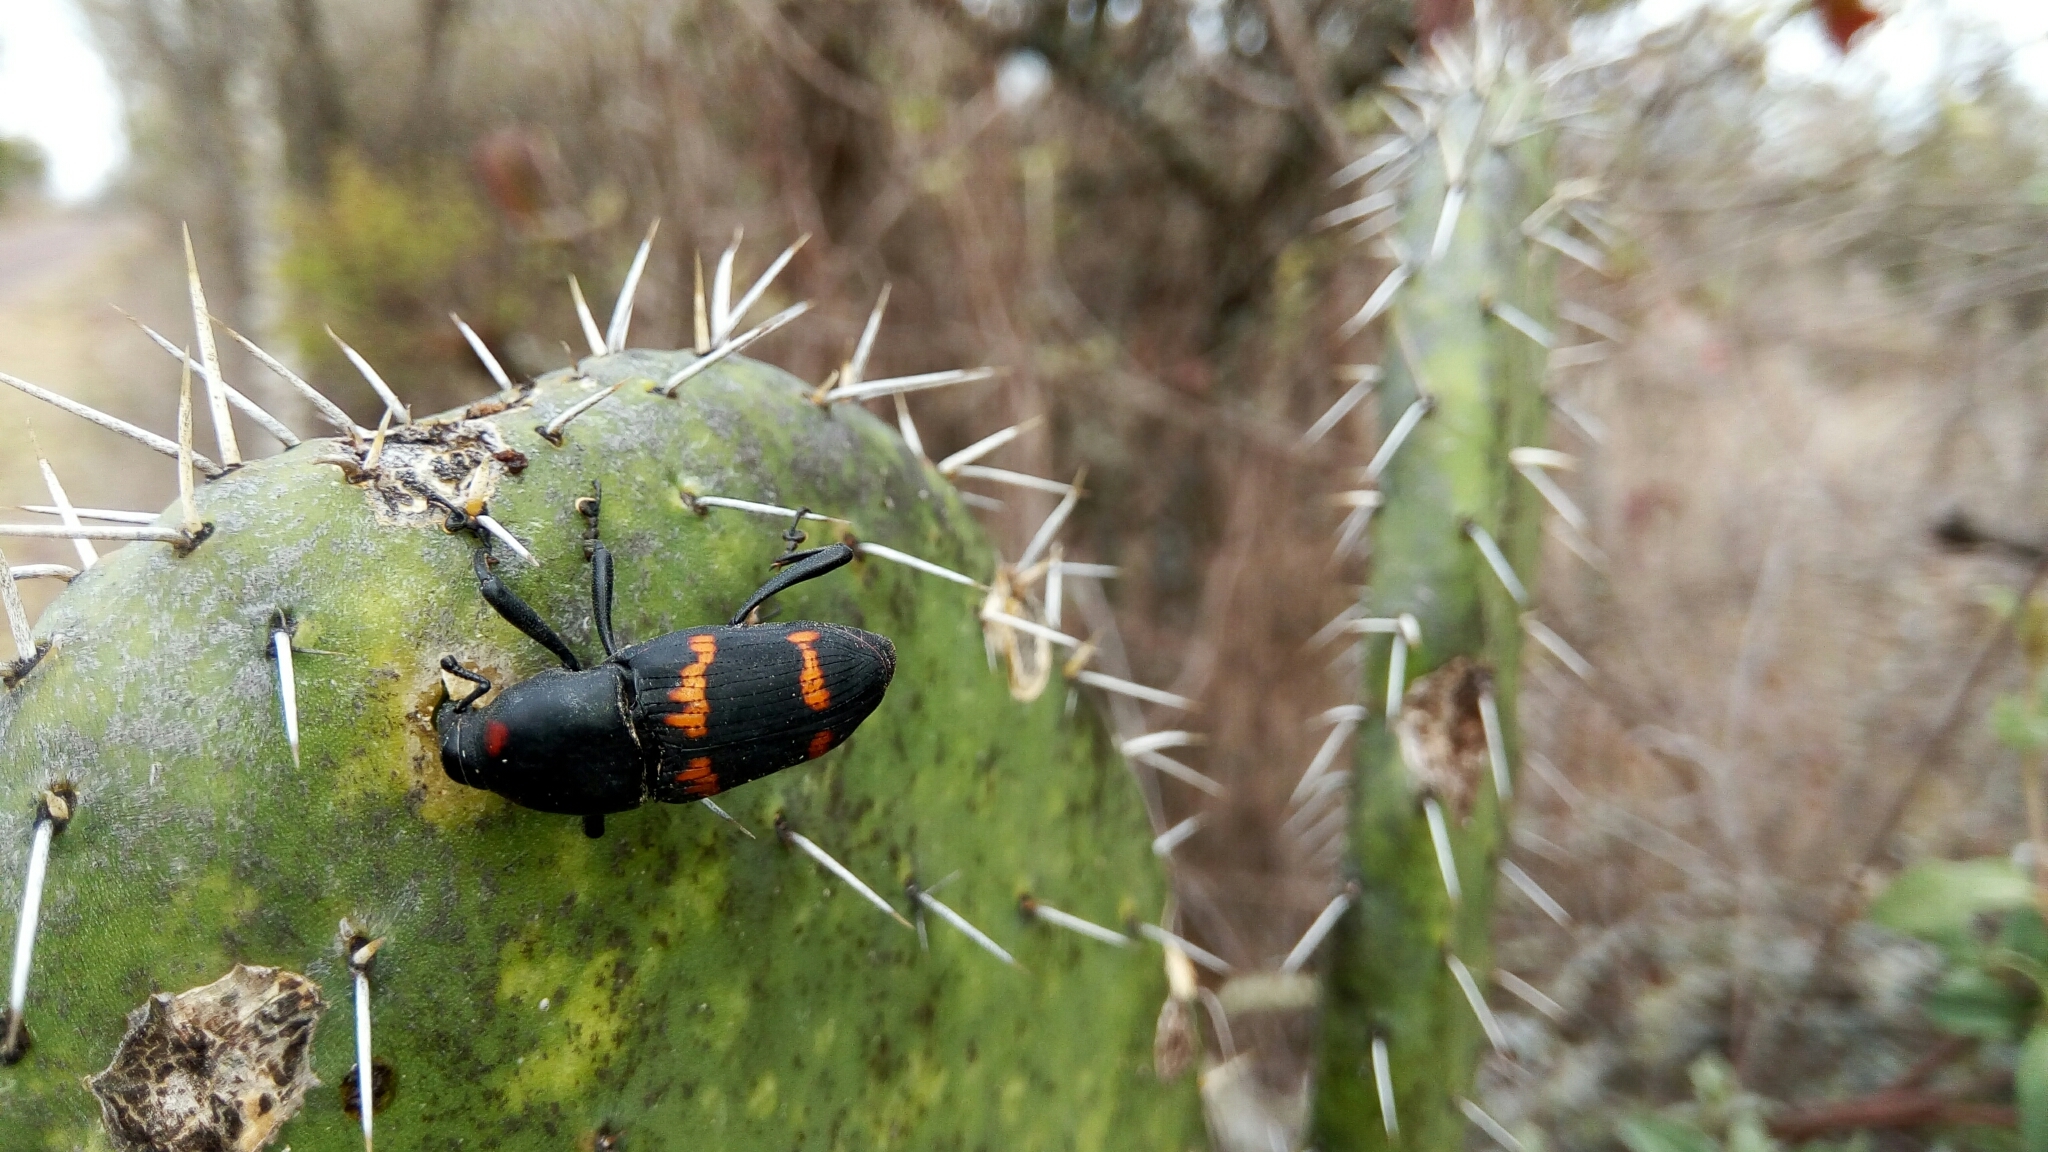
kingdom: Animalia
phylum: Arthropoda
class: Insecta
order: Coleoptera
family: Dryophthoridae
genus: Cactophagus
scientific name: Cactophagus spinolae
